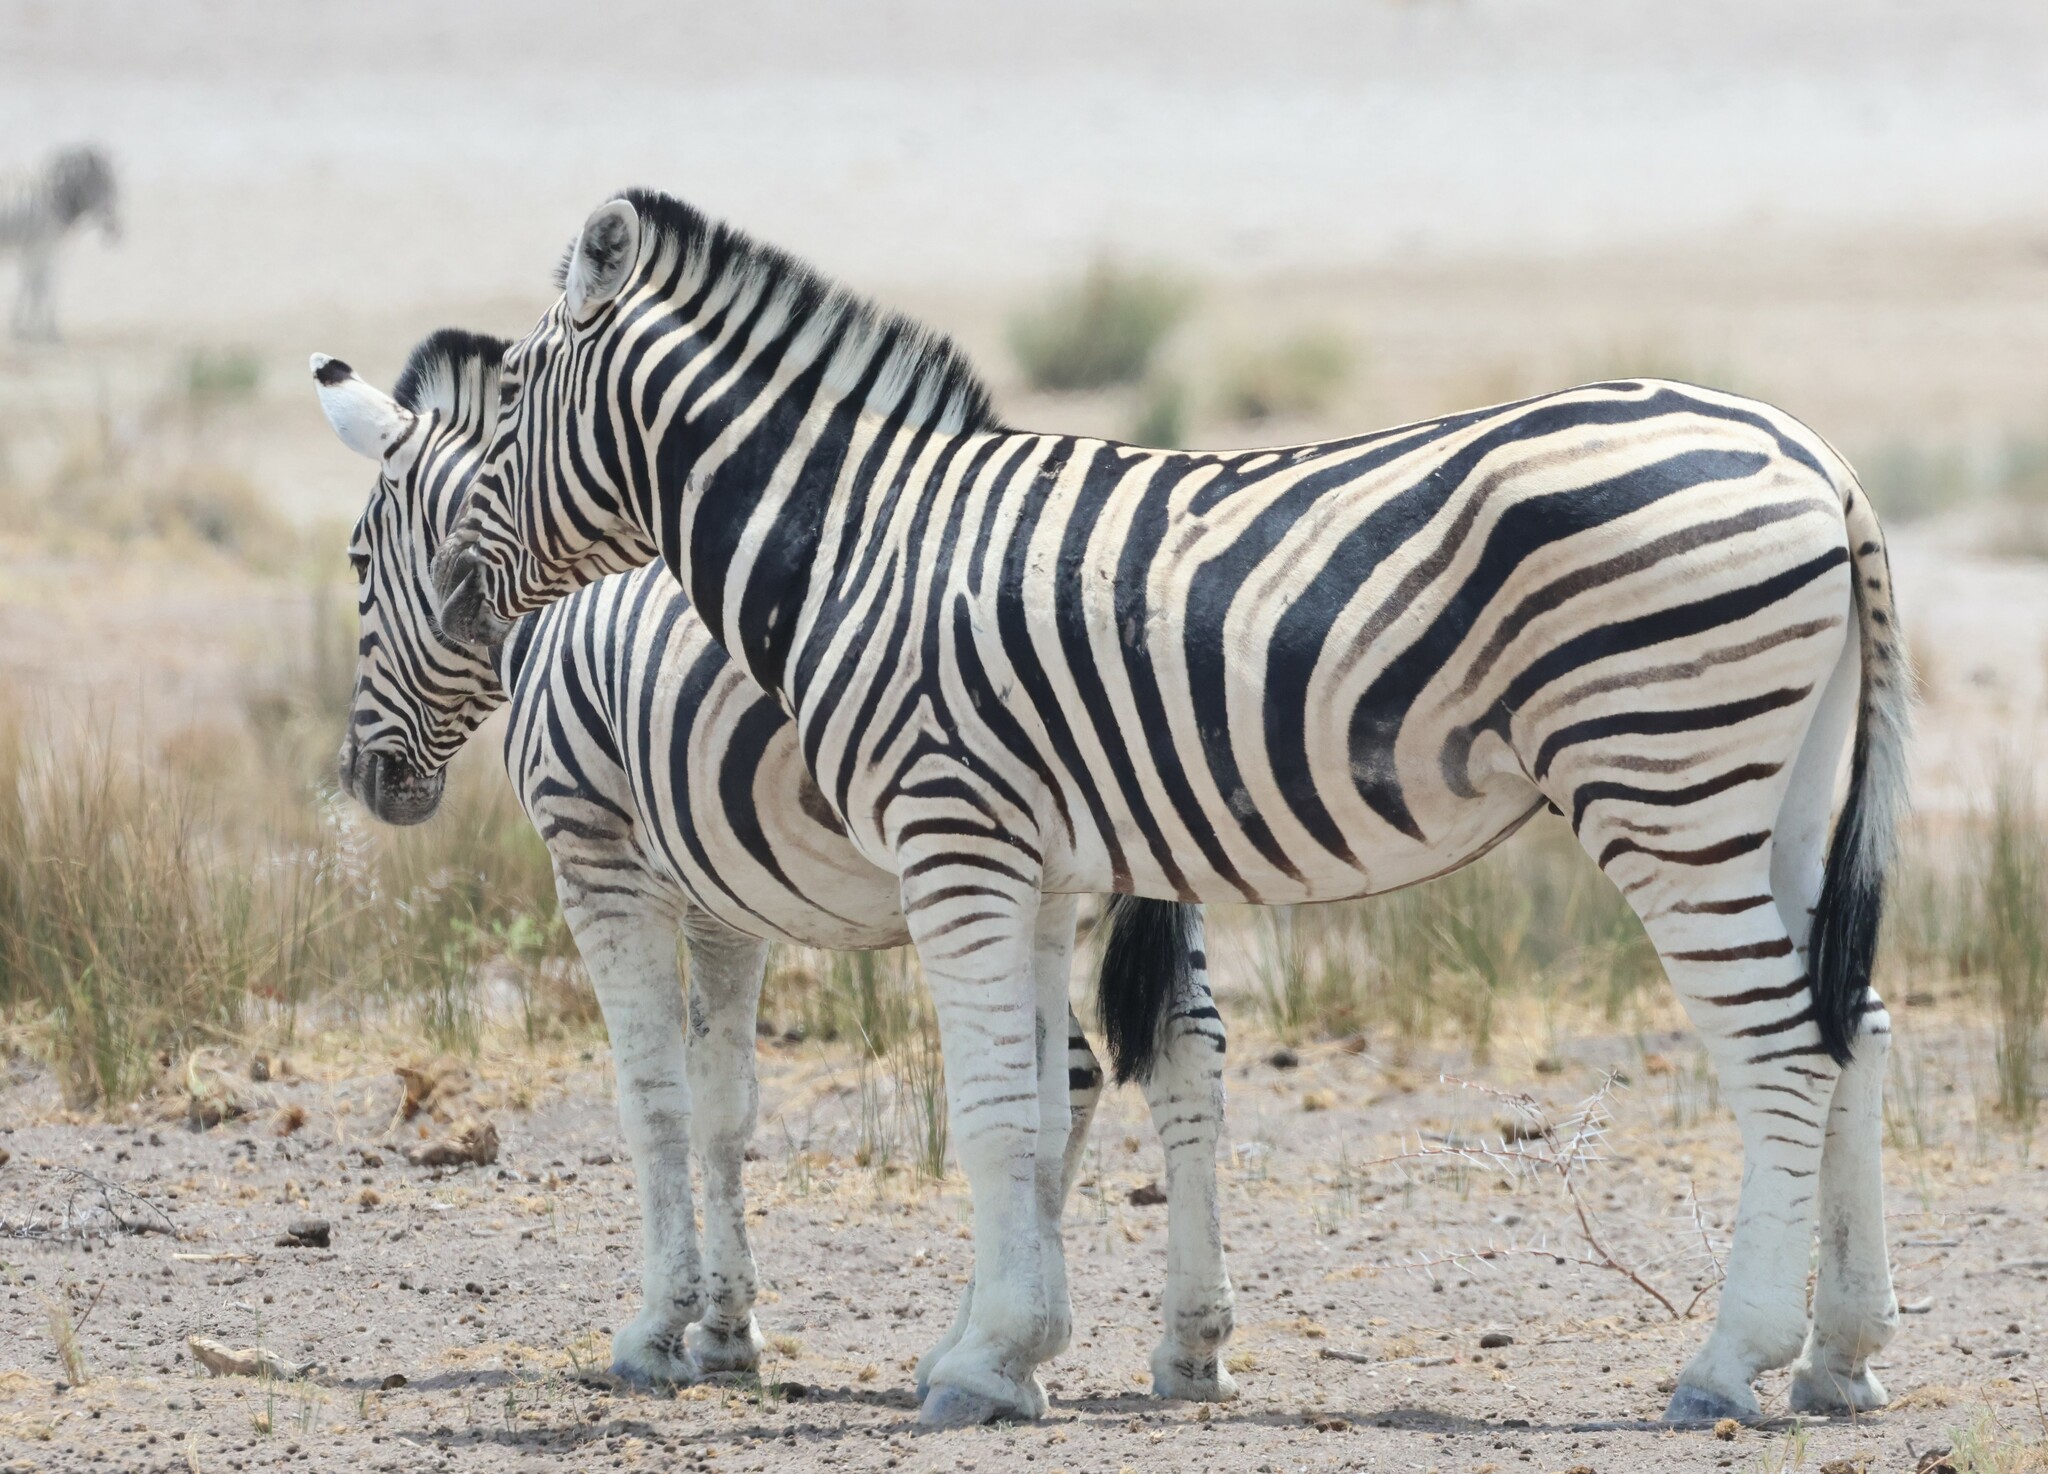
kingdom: Animalia
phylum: Chordata
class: Mammalia
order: Perissodactyla
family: Equidae
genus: Equus
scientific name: Equus quagga
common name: Plains zebra
